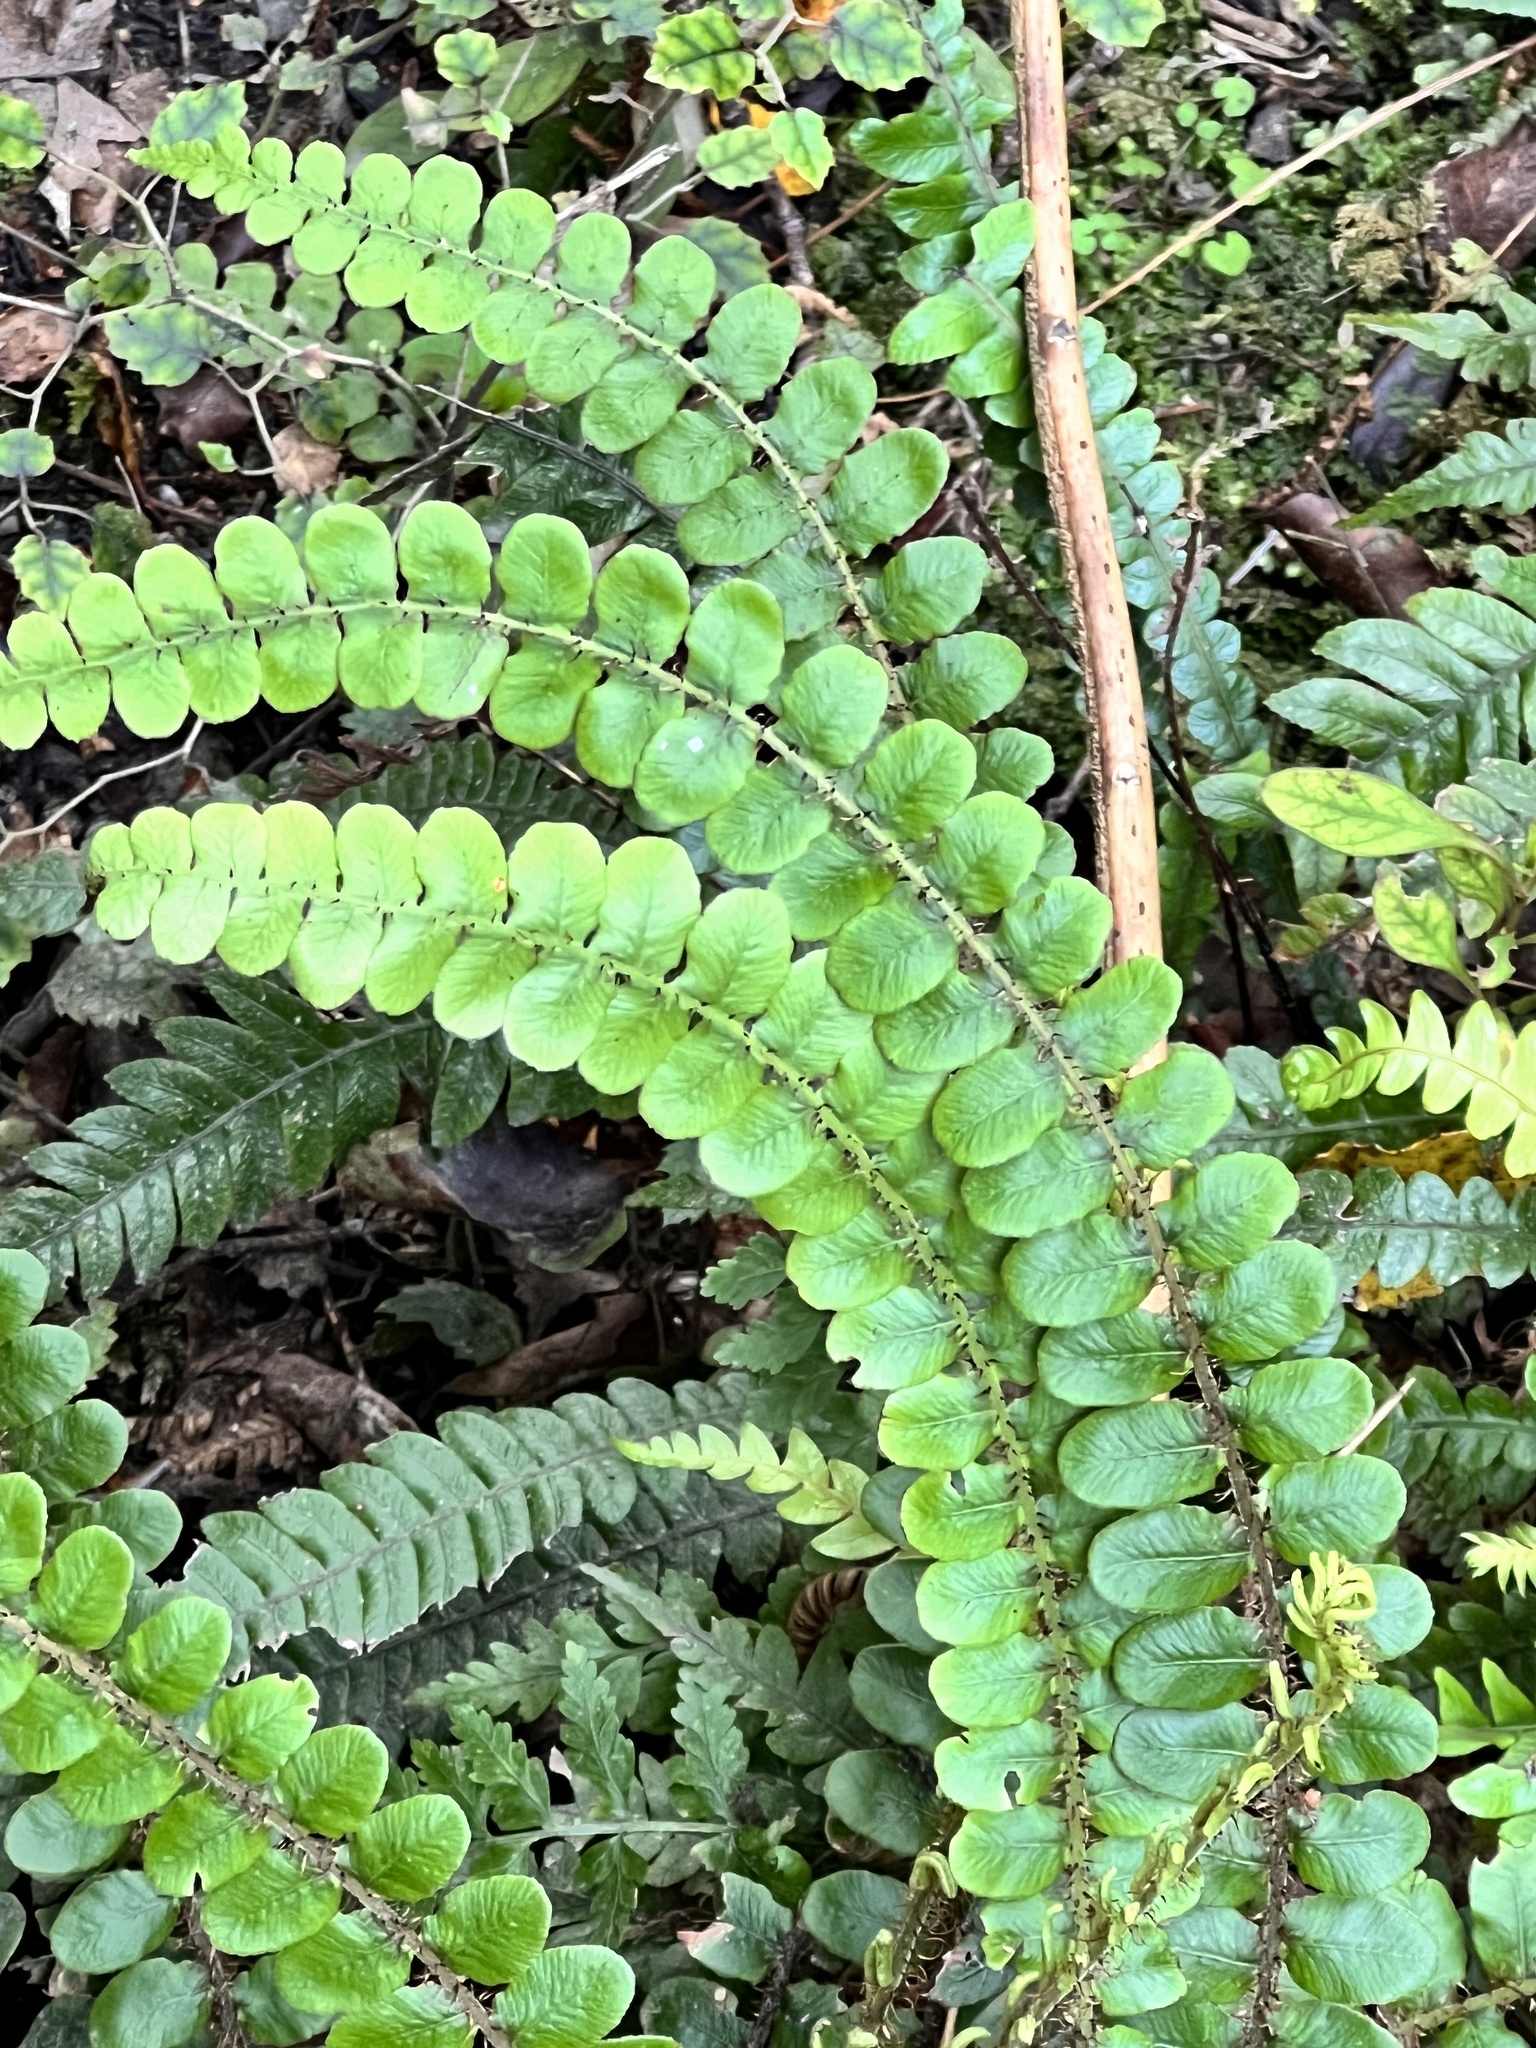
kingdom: Plantae
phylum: Tracheophyta
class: Polypodiopsida
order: Polypodiales
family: Blechnaceae
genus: Cranfillia
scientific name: Cranfillia fluviatilis
